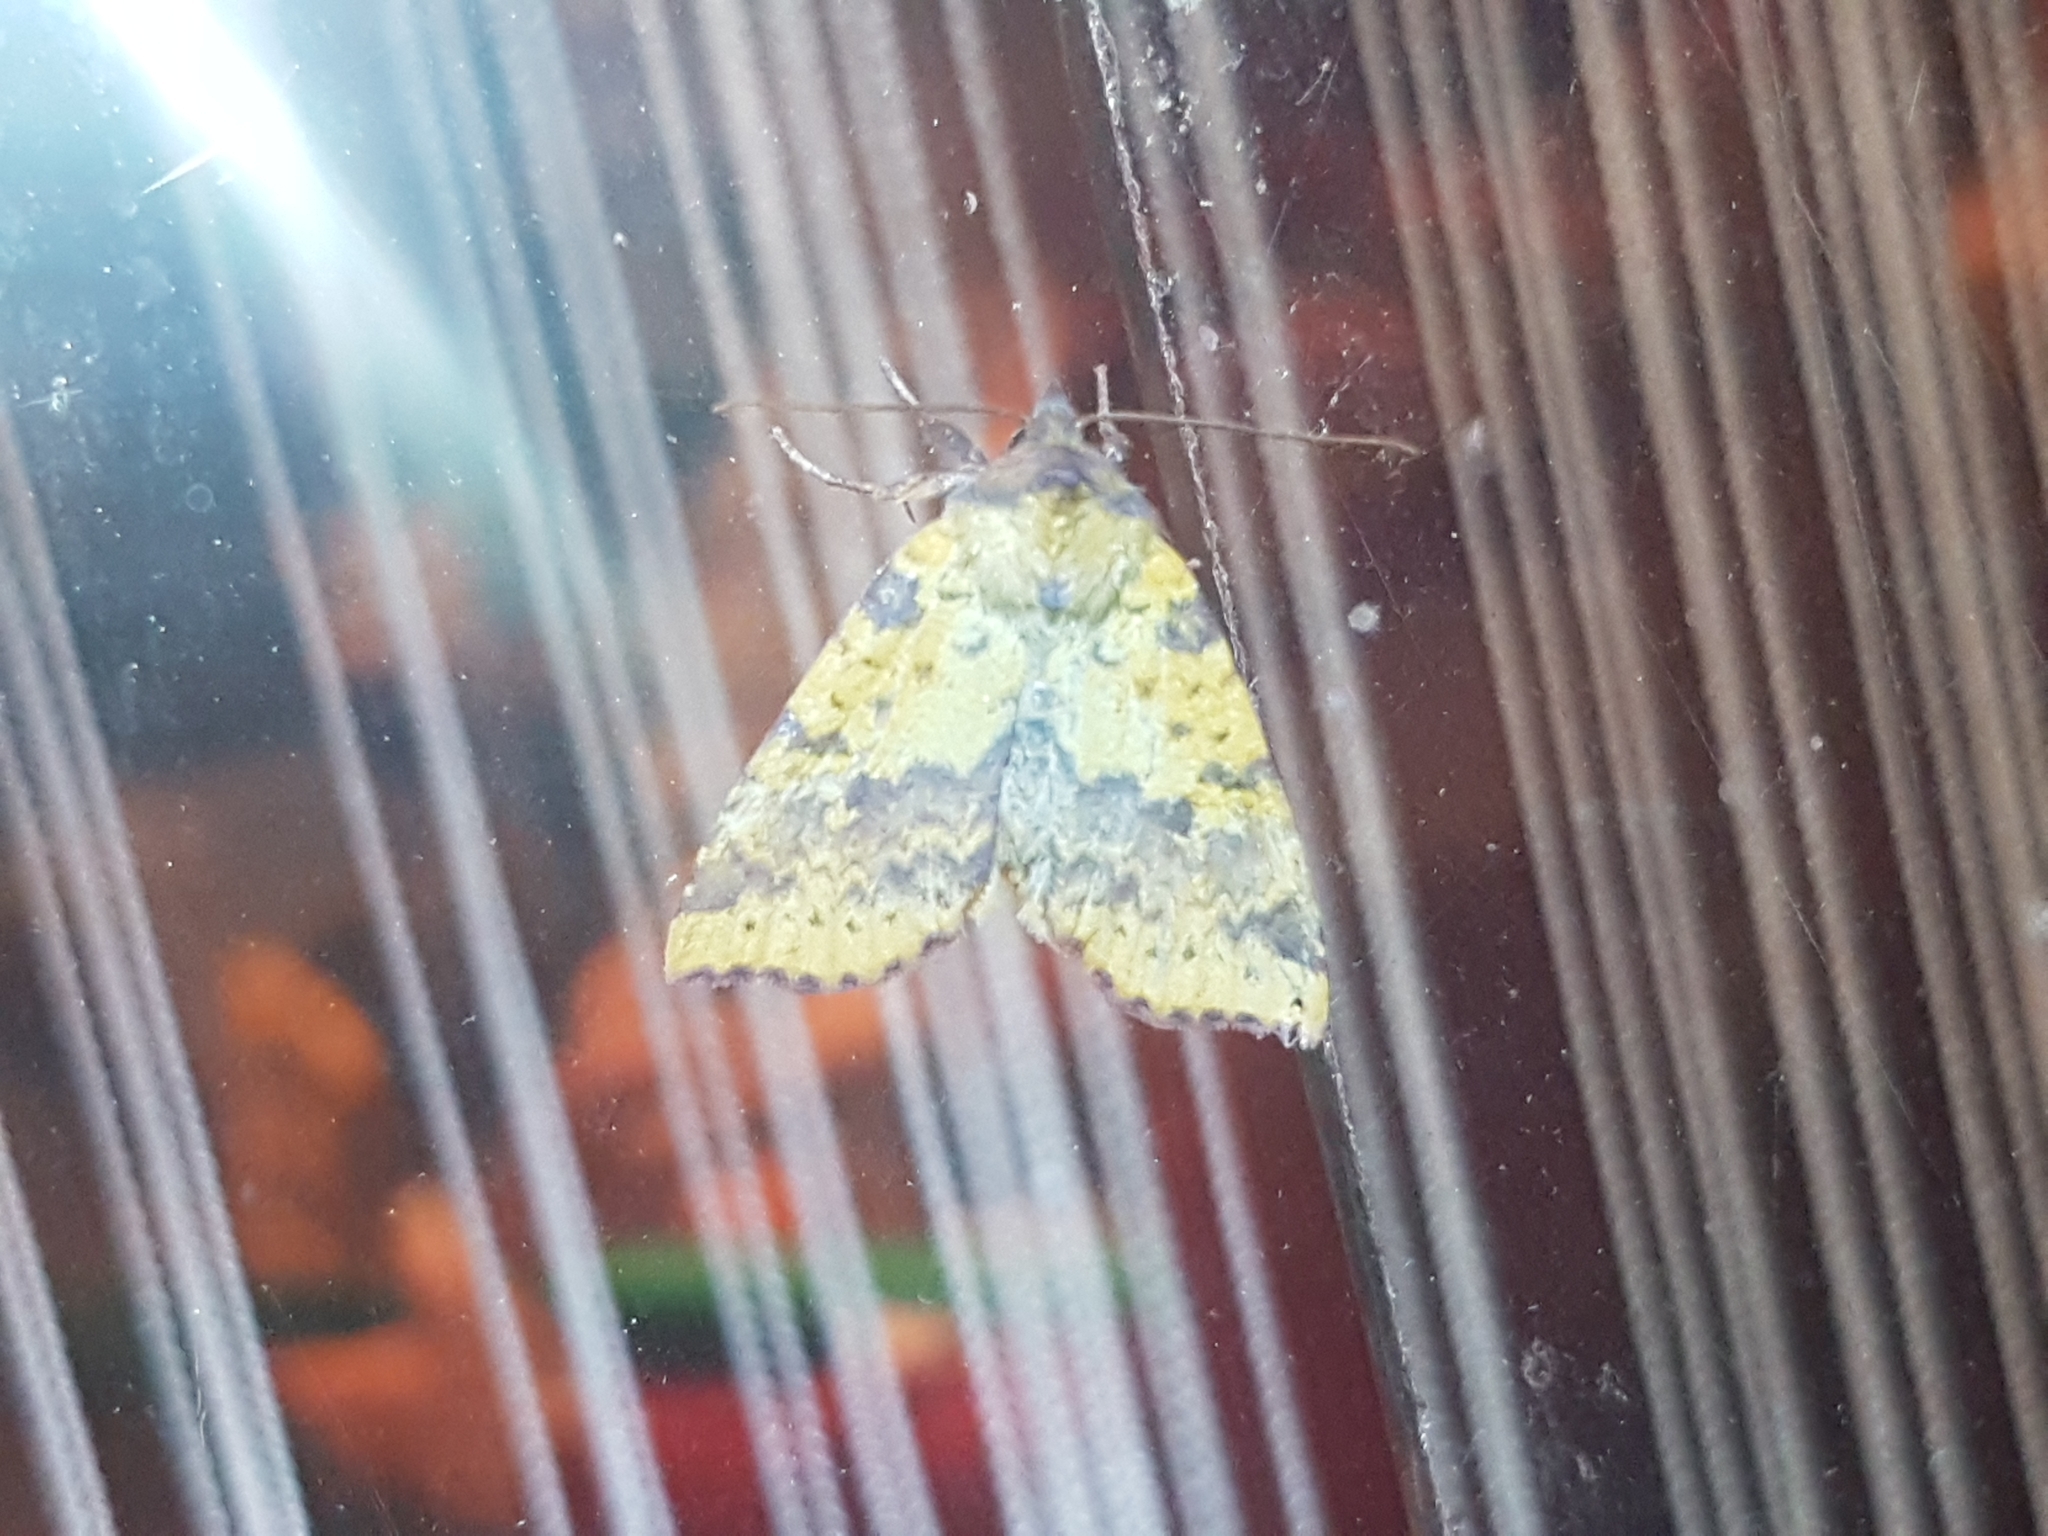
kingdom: Animalia
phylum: Arthropoda
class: Insecta
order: Lepidoptera
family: Noctuidae
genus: Xanthia
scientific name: Xanthia togata
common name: Pink-barred sallow
